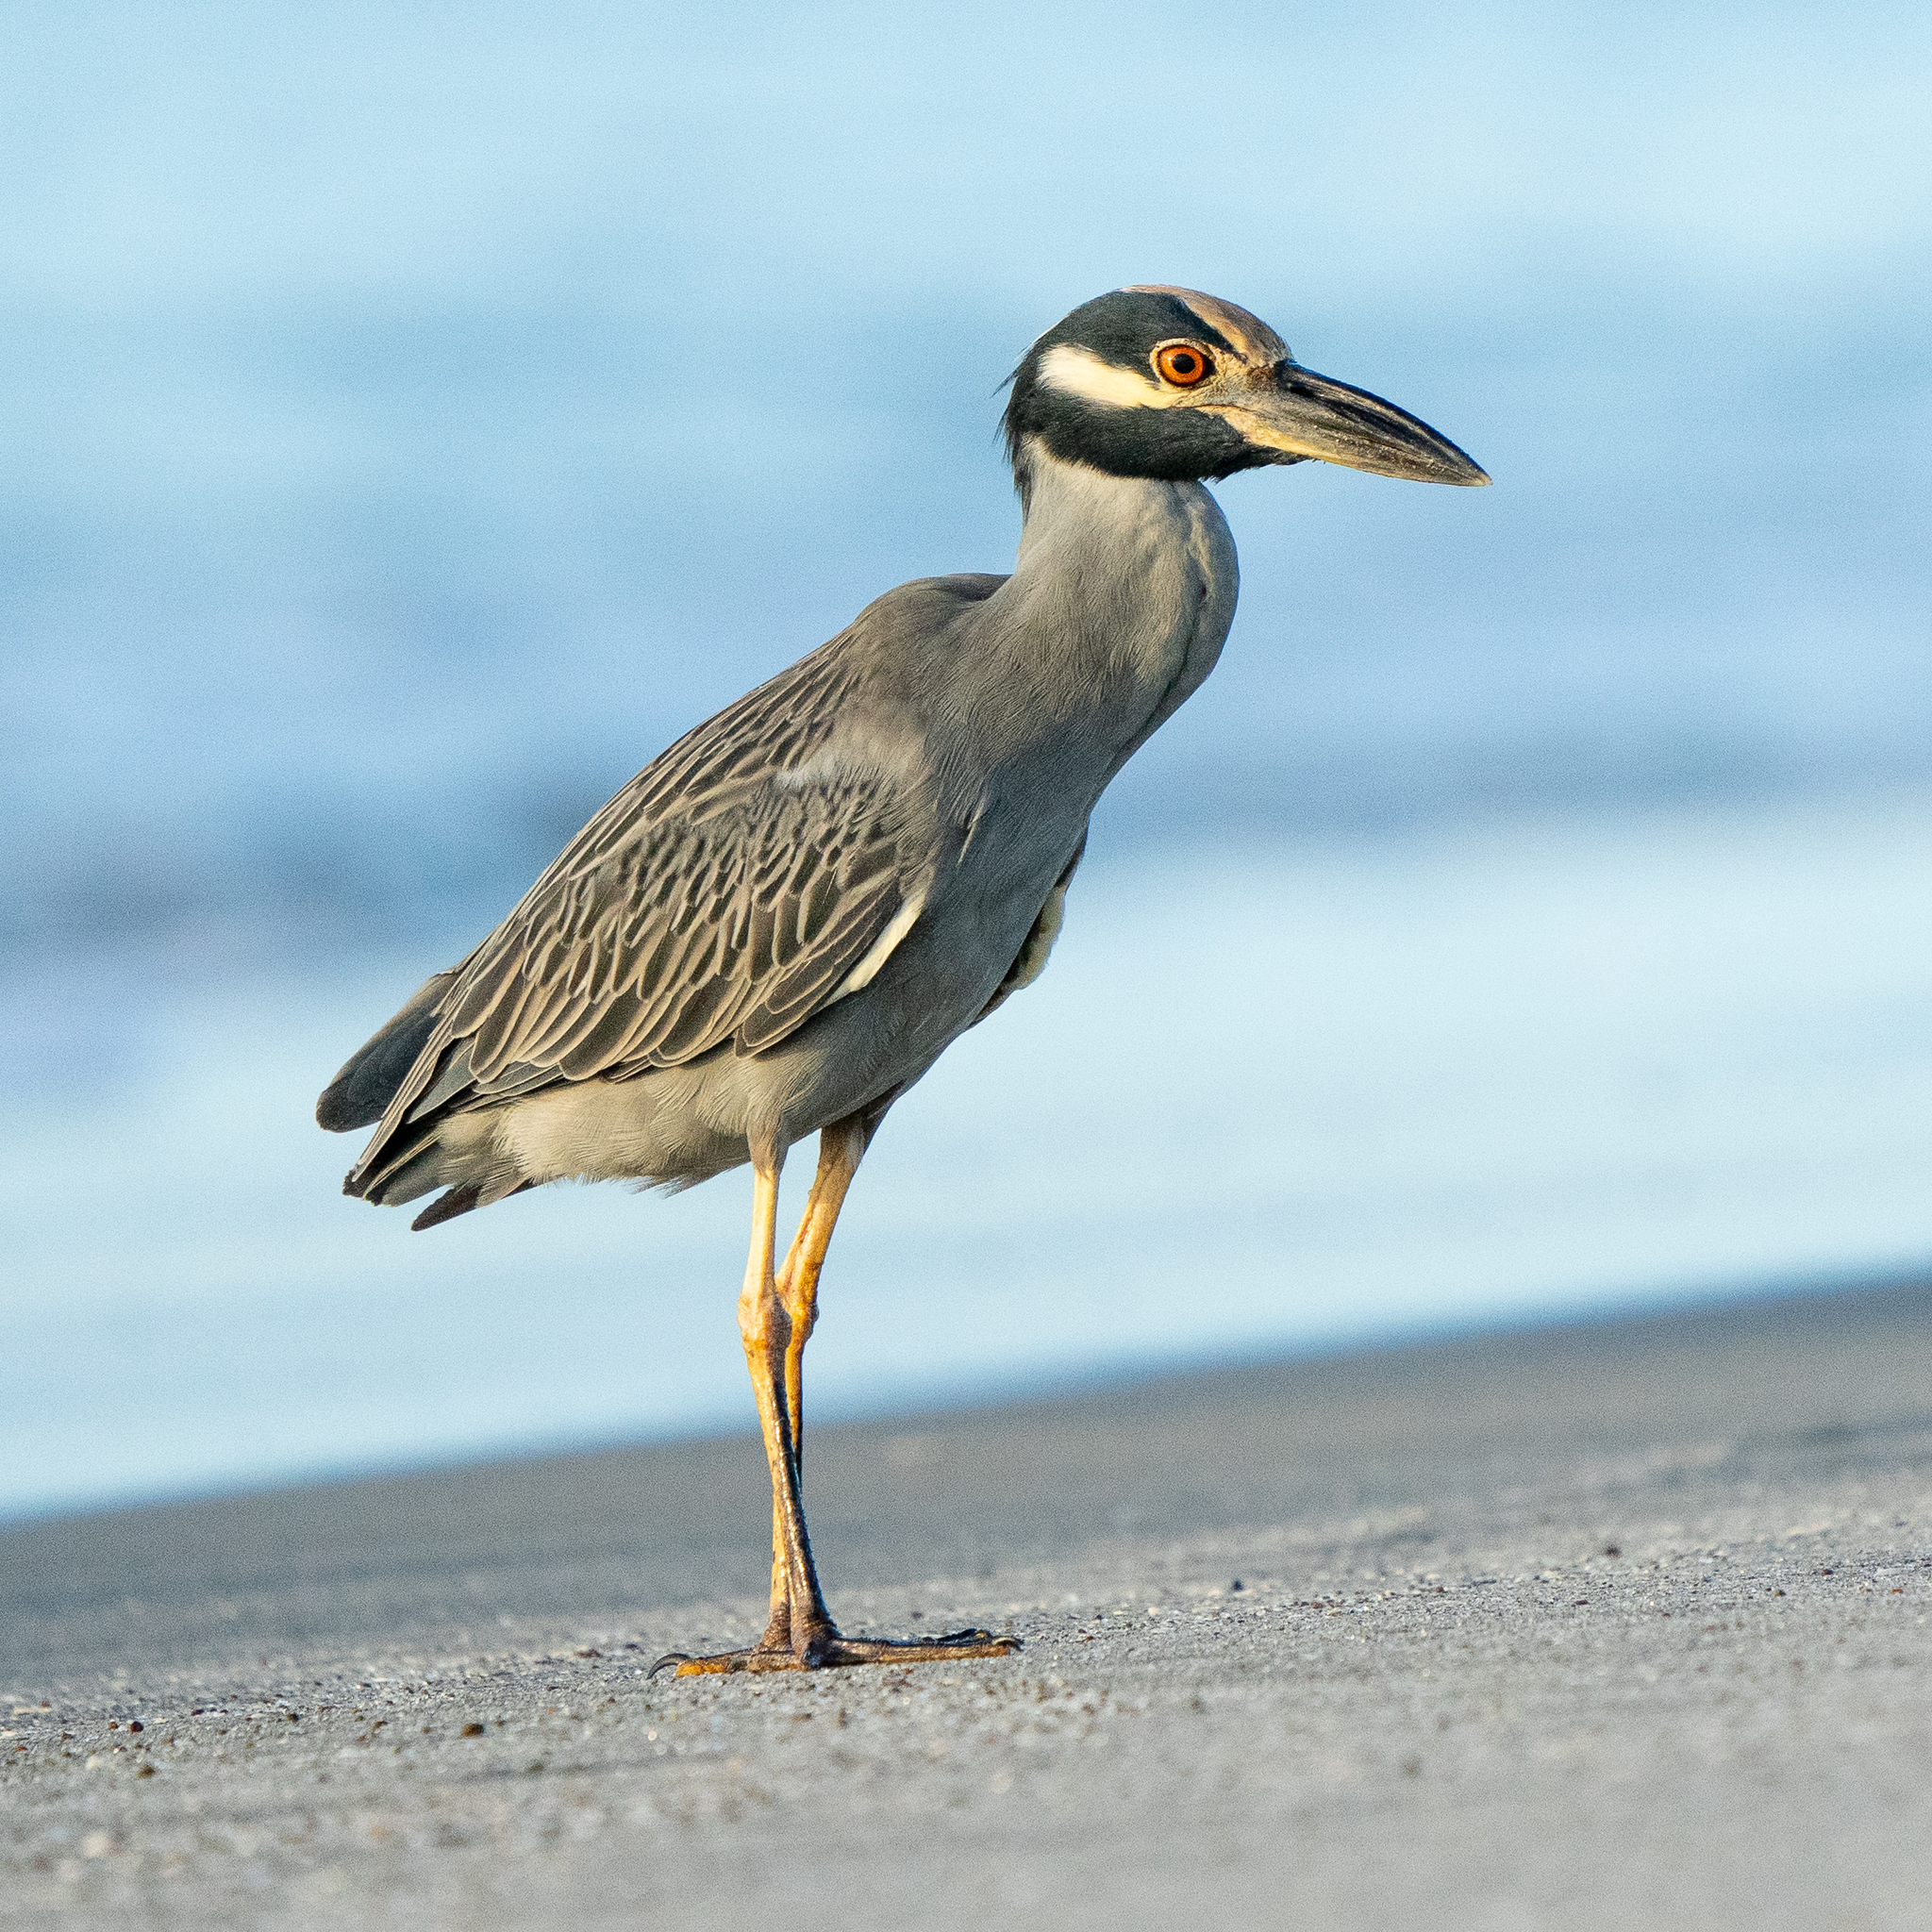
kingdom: Animalia
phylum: Chordata
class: Aves
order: Pelecaniformes
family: Ardeidae
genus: Nyctanassa
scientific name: Nyctanassa violacea
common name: Yellow-crowned night heron
